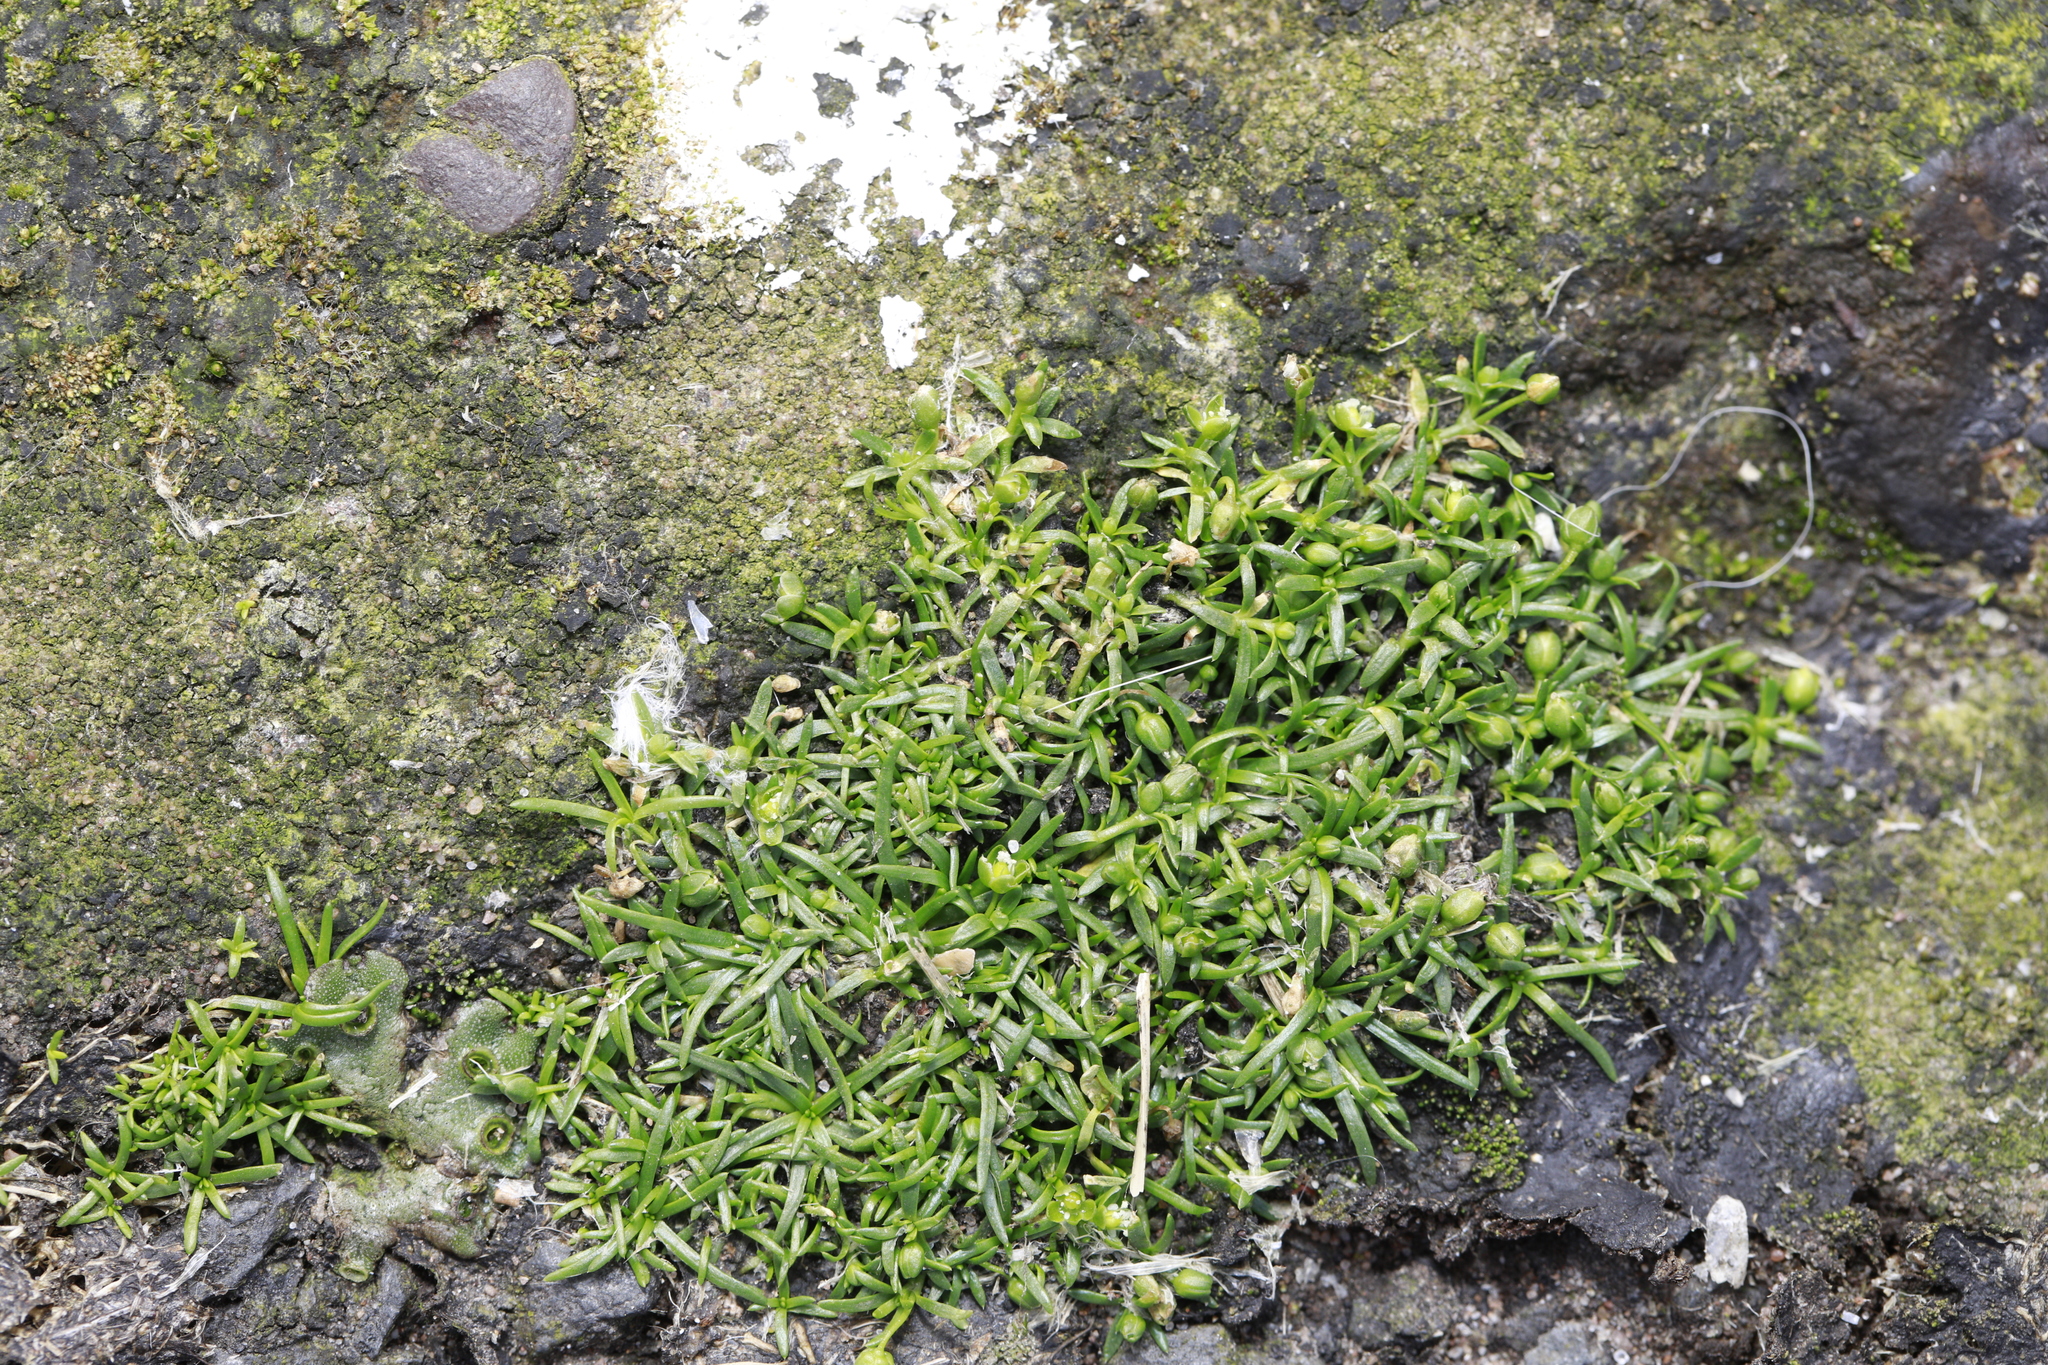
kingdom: Plantae
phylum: Tracheophyta
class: Magnoliopsida
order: Caryophyllales
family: Caryophyllaceae
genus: Sagina
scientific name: Sagina procumbens
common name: Procumbent pearlwort
